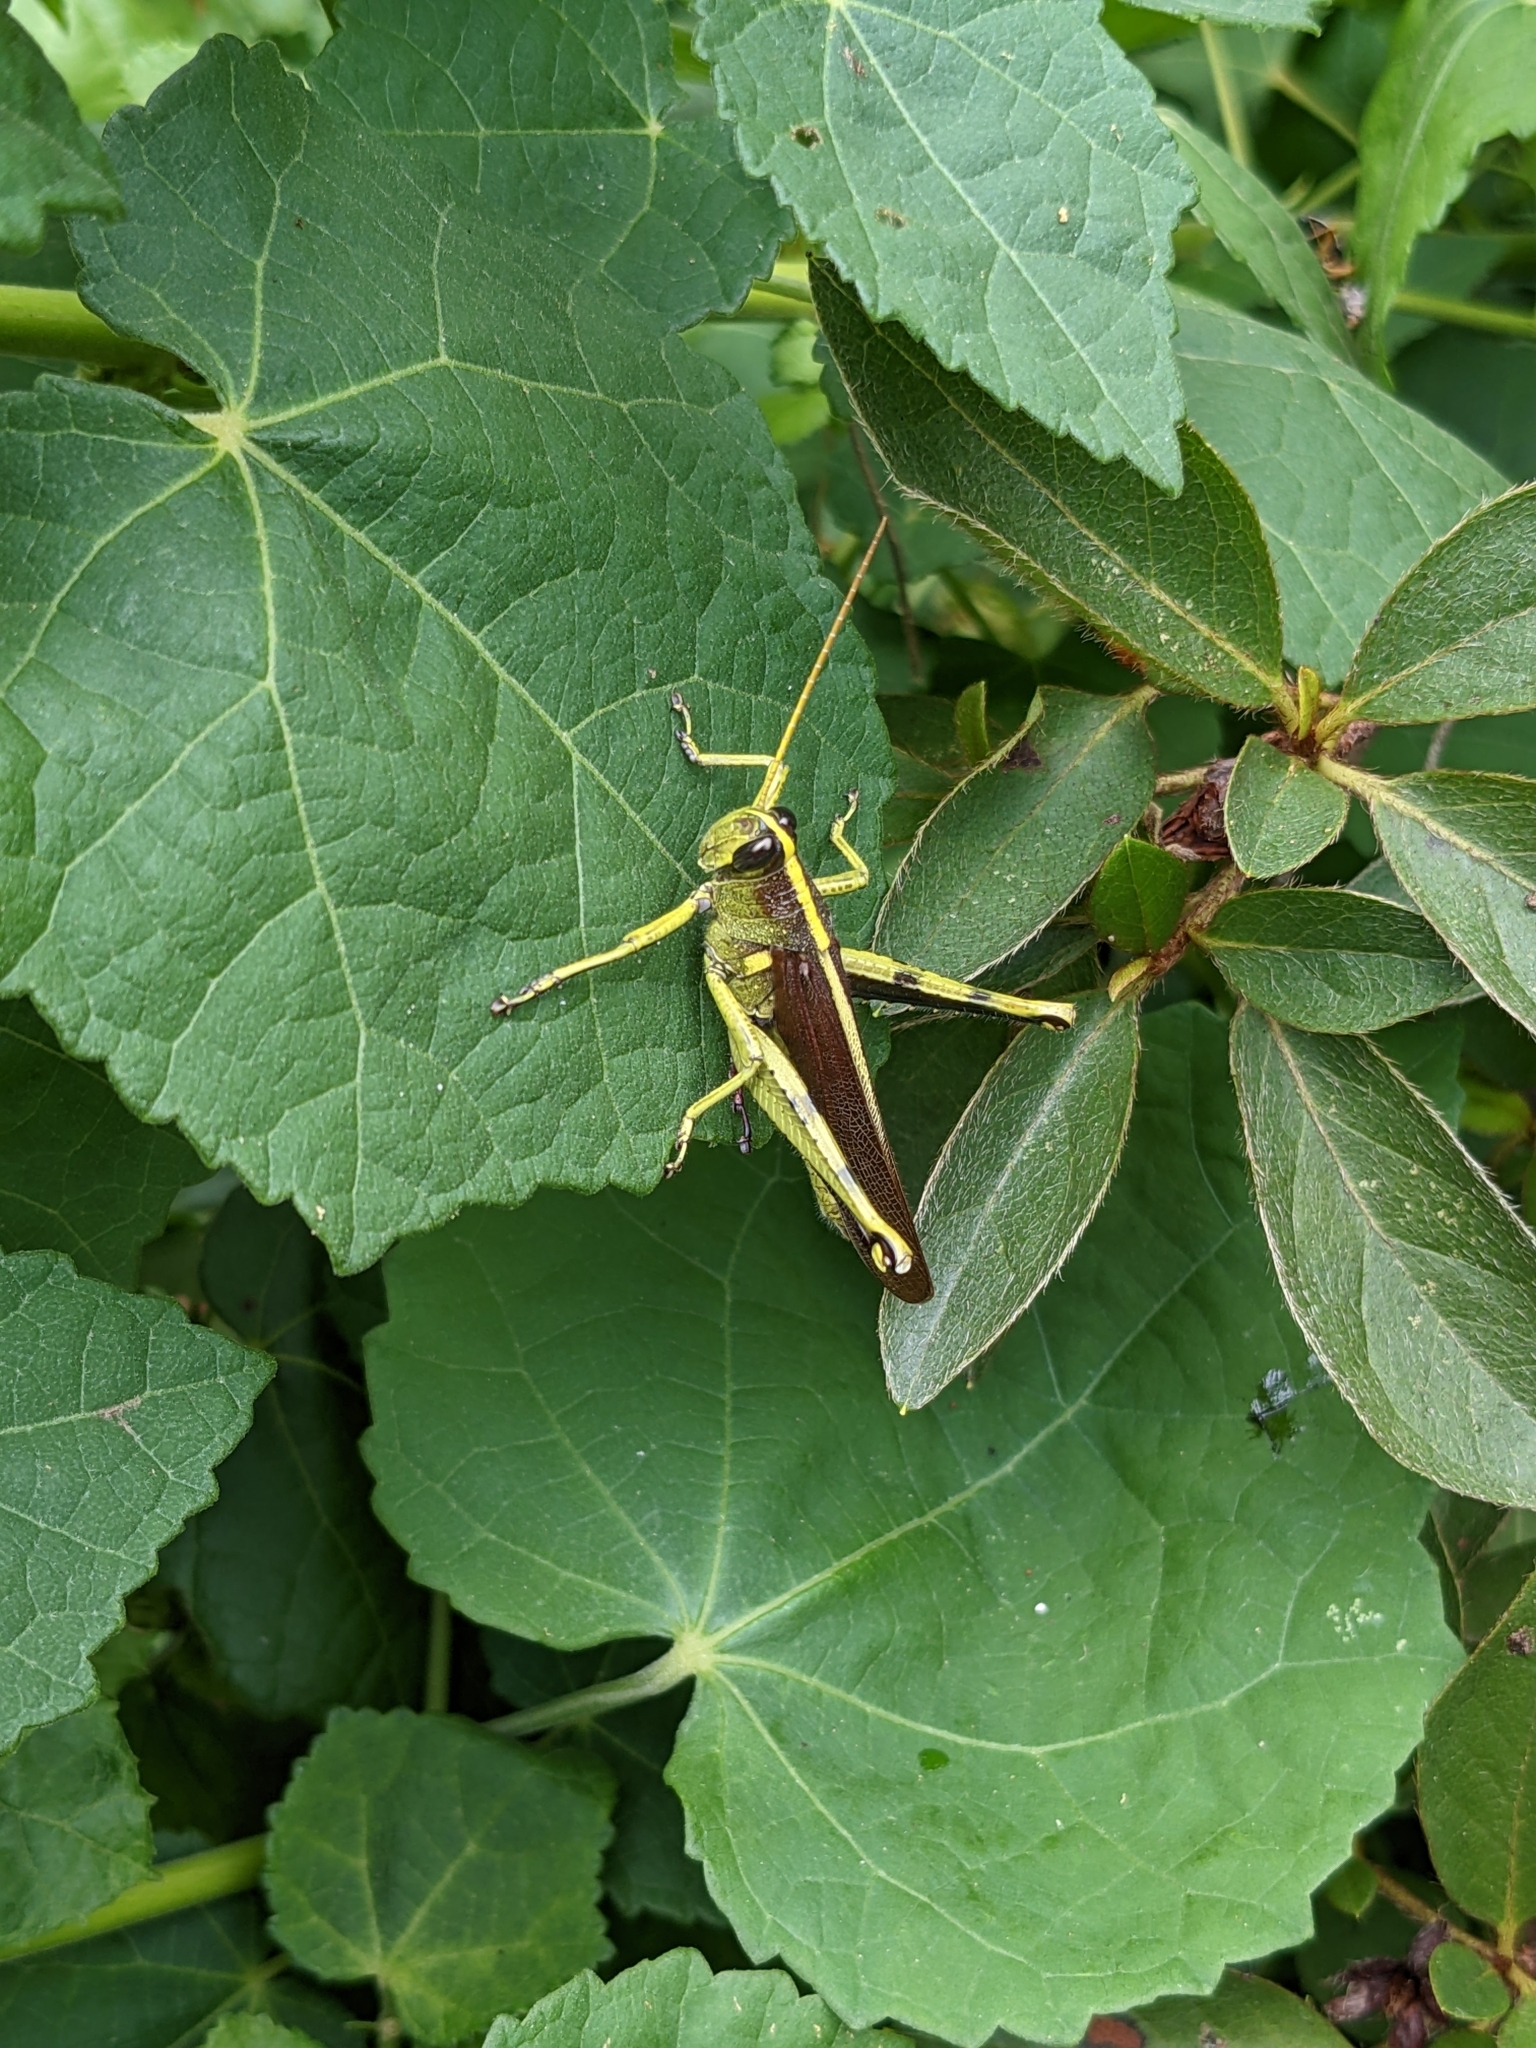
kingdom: Animalia
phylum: Arthropoda
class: Insecta
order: Orthoptera
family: Acrididae
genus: Schistocerca
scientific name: Schistocerca obscura
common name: Obscure bird grasshopper
